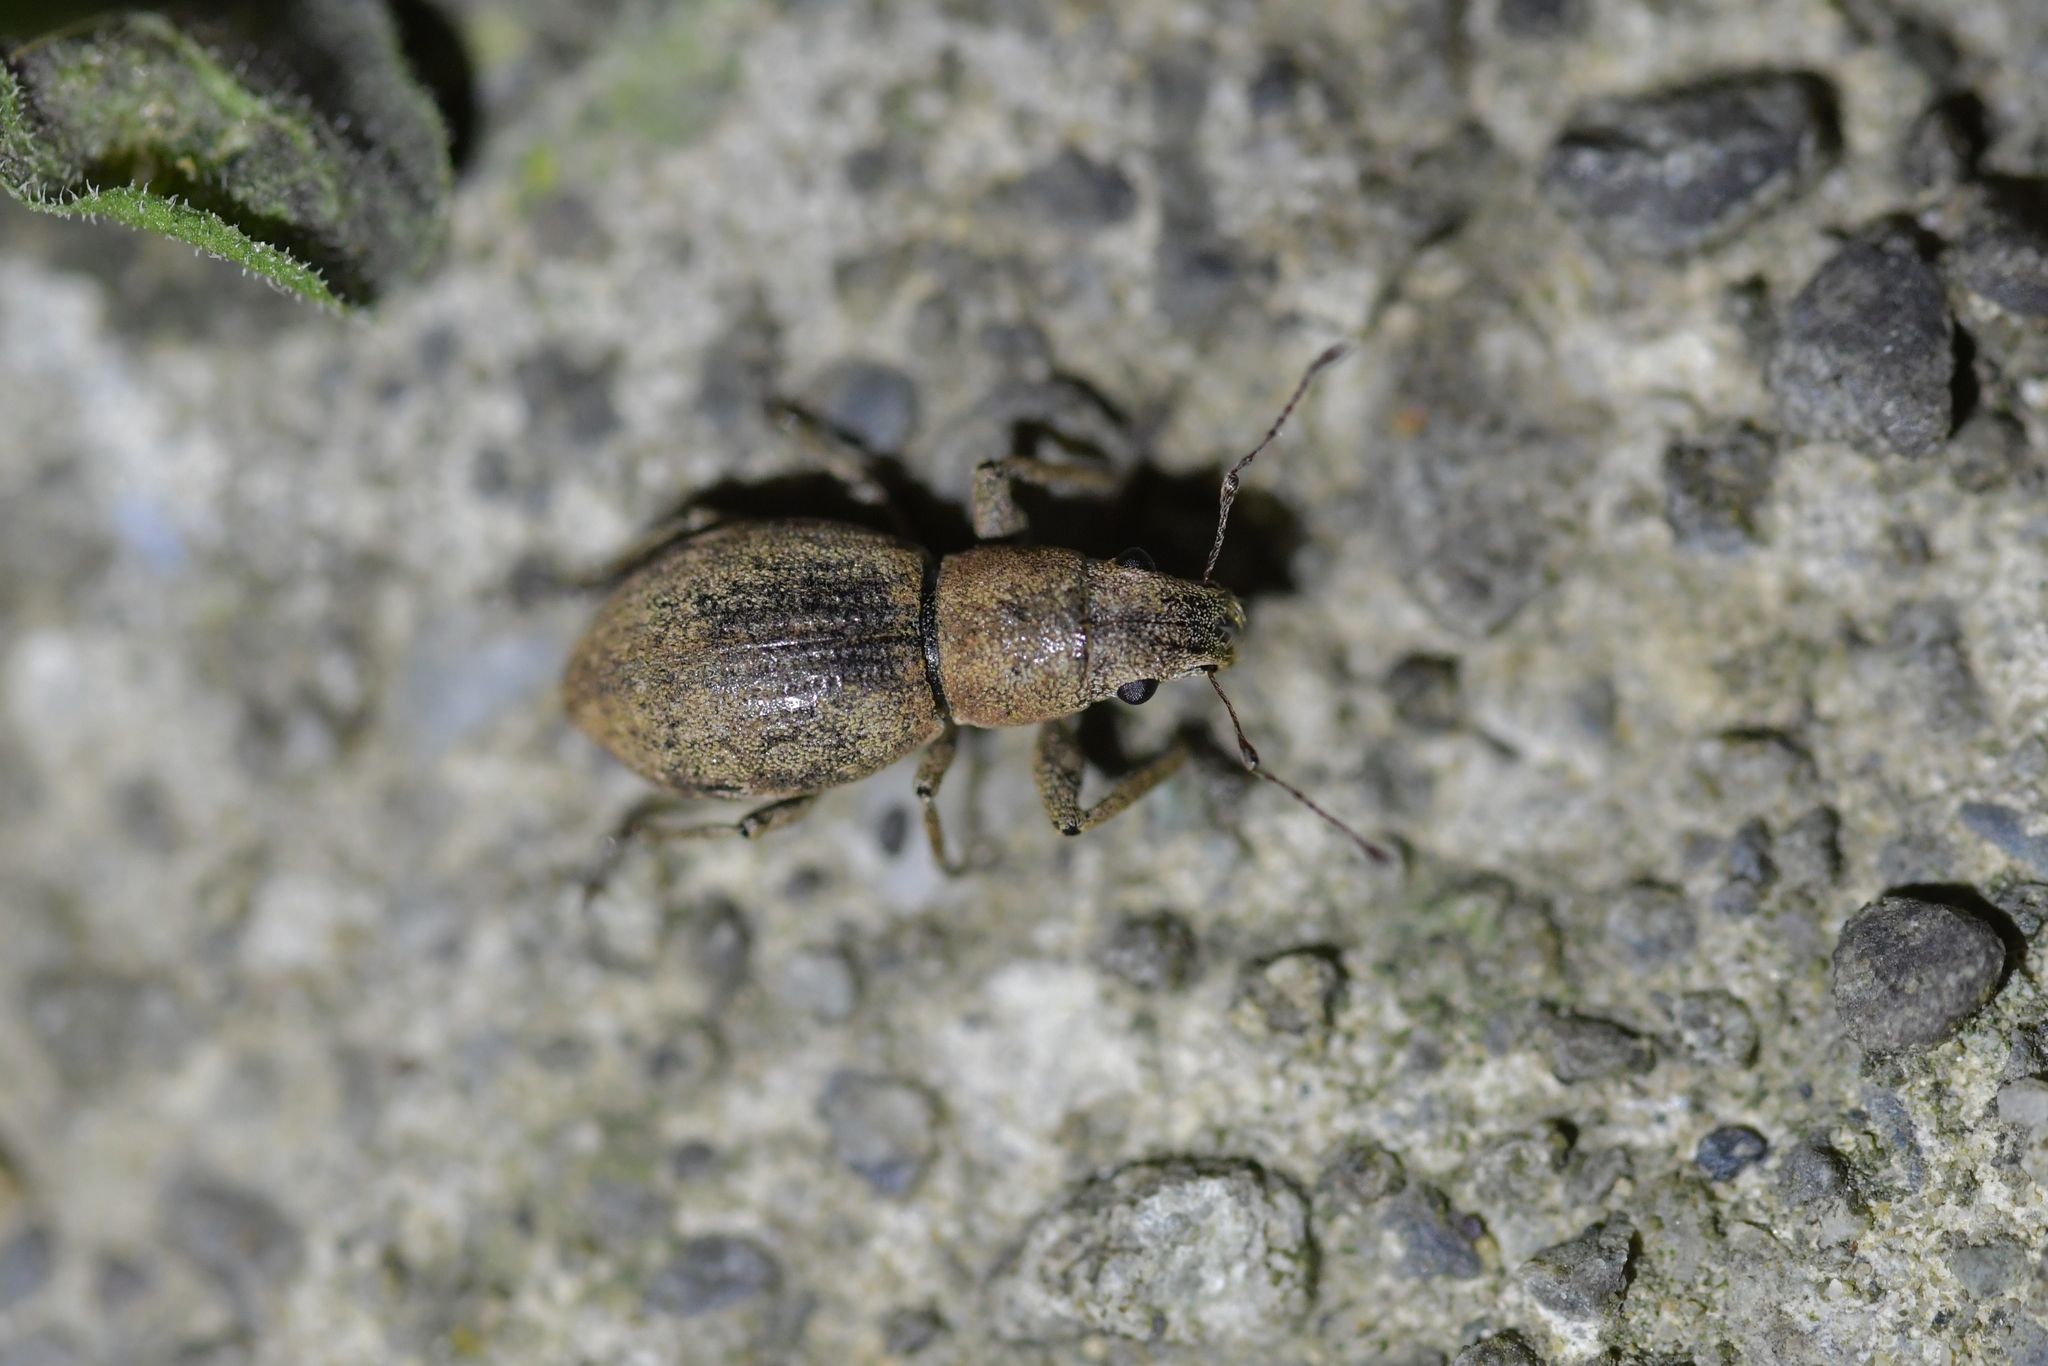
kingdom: Animalia
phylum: Arthropoda
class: Insecta
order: Coleoptera
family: Curculionidae
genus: Naupactus
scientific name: Naupactus cervinus
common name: Fuller rose beetle
